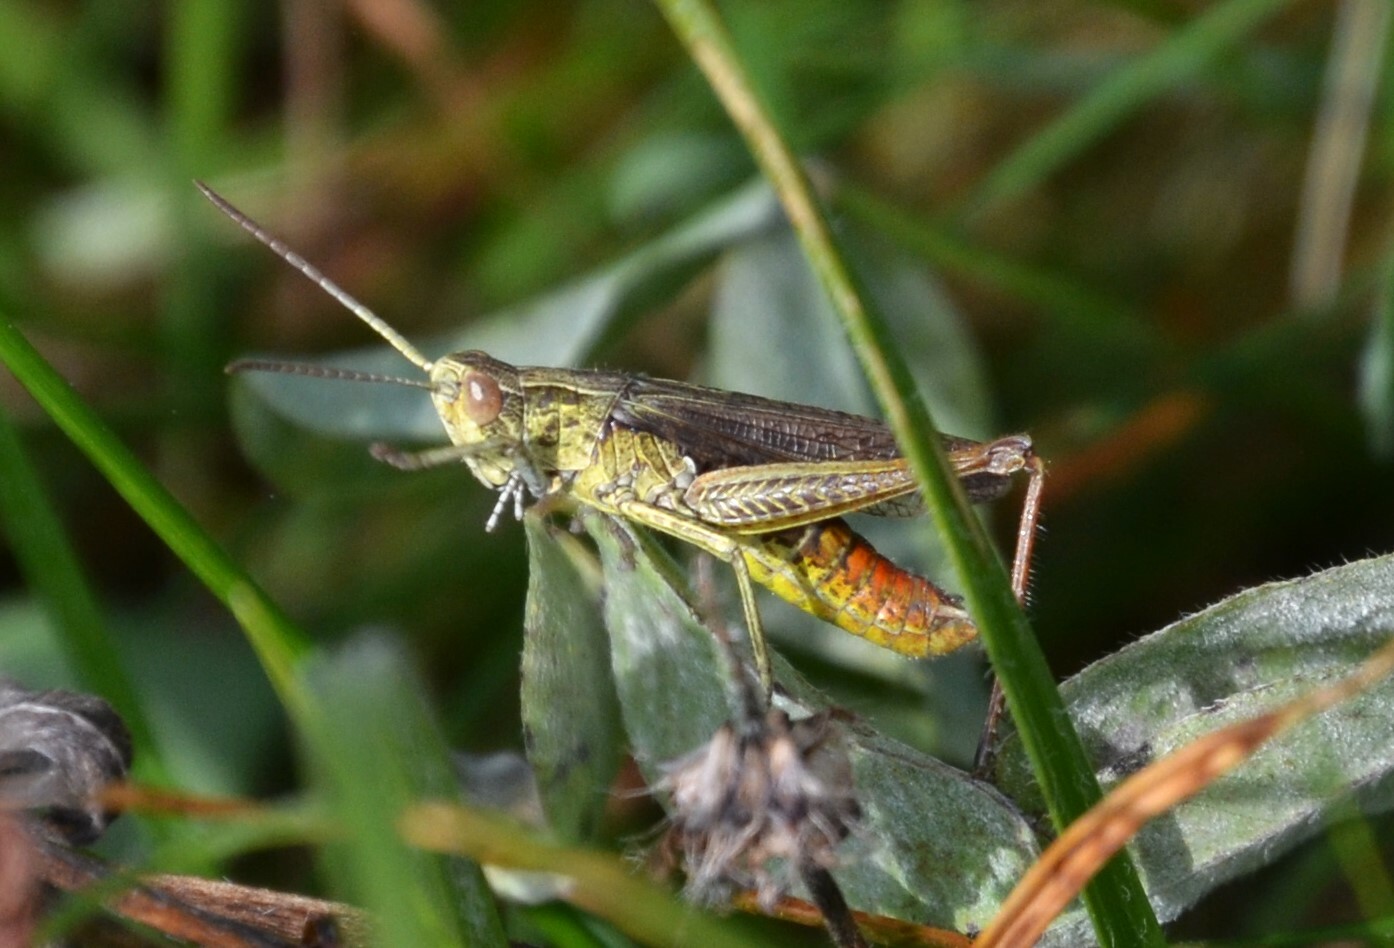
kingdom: Animalia
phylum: Arthropoda
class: Insecta
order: Orthoptera
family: Acrididae
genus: Chorthippus
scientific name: Chorthippus dorsatus
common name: Steppe grasshopper
